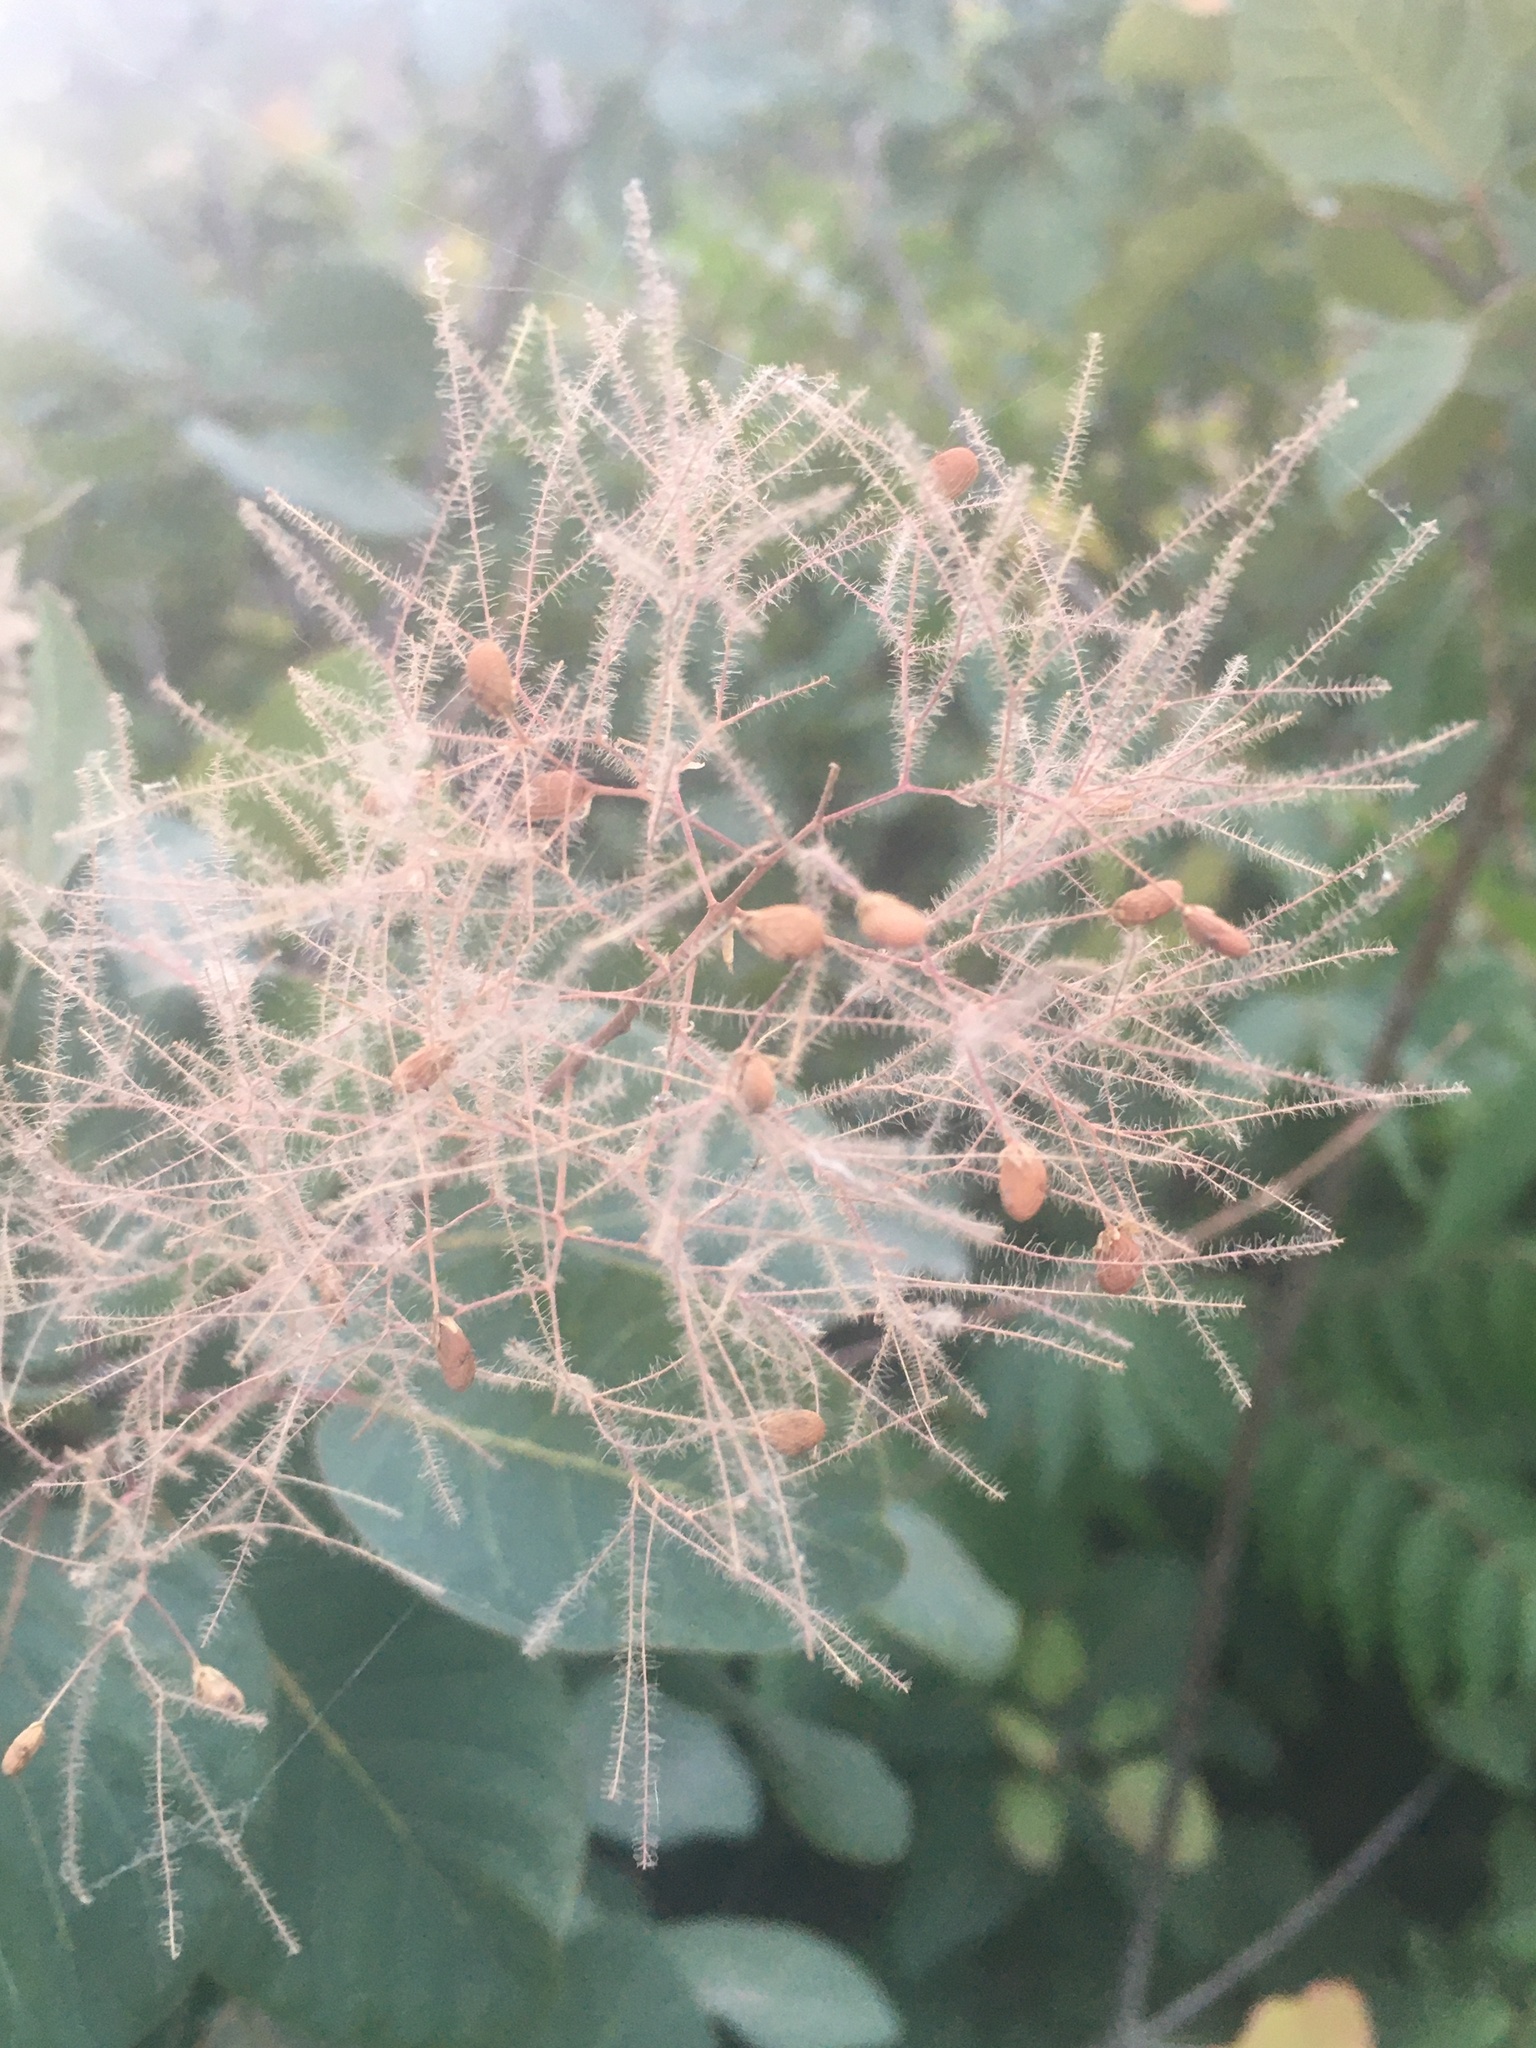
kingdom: Plantae
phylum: Tracheophyta
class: Magnoliopsida
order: Sapindales
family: Anacardiaceae
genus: Cotinus
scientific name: Cotinus coggygria
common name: Smoke-tree
